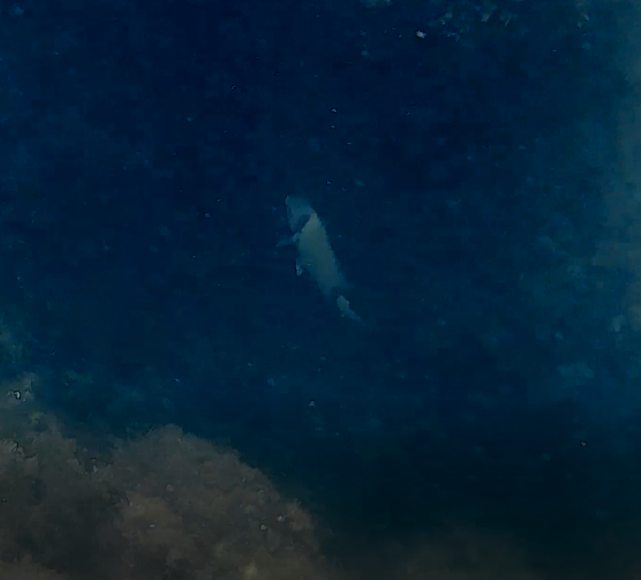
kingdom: Animalia
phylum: Chordata
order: Perciformes
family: Sparidae
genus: Diplodus
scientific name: Diplodus vulgaris
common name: Common two-banded seabream
